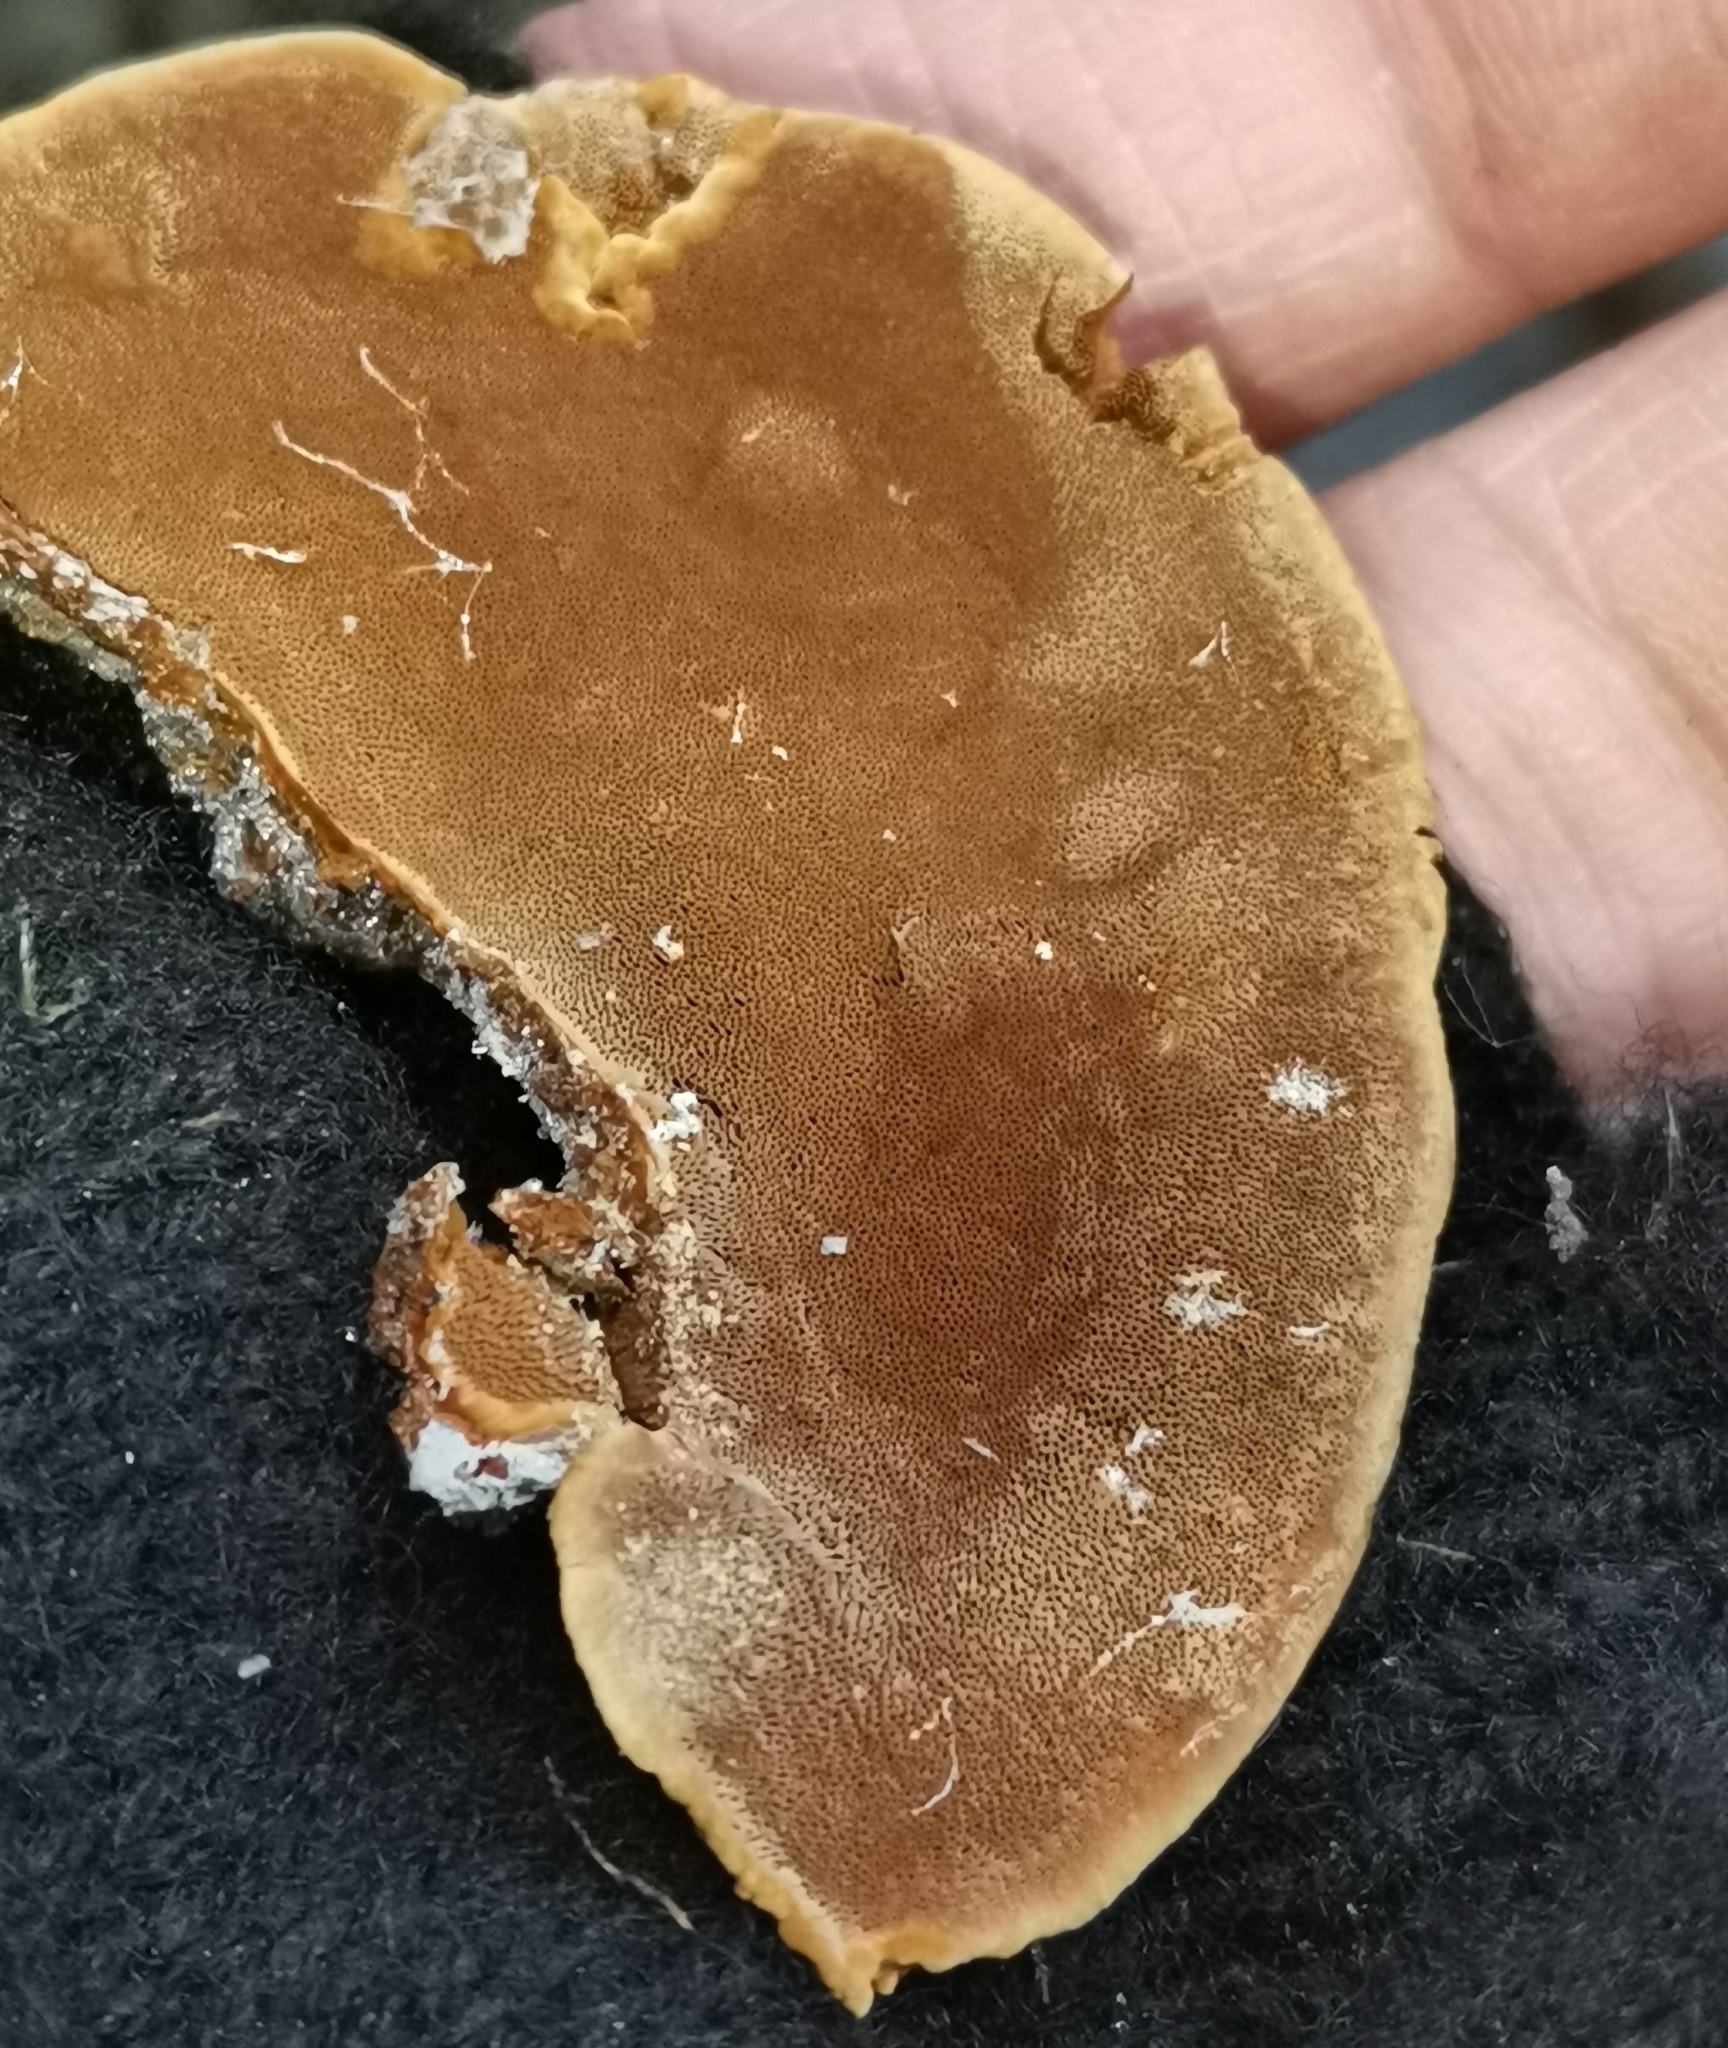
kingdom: Fungi
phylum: Basidiomycota
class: Agaricomycetes
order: Hymenochaetales
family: Hymenochaetaceae
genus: Phellinopsis
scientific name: Phellinopsis conchata
